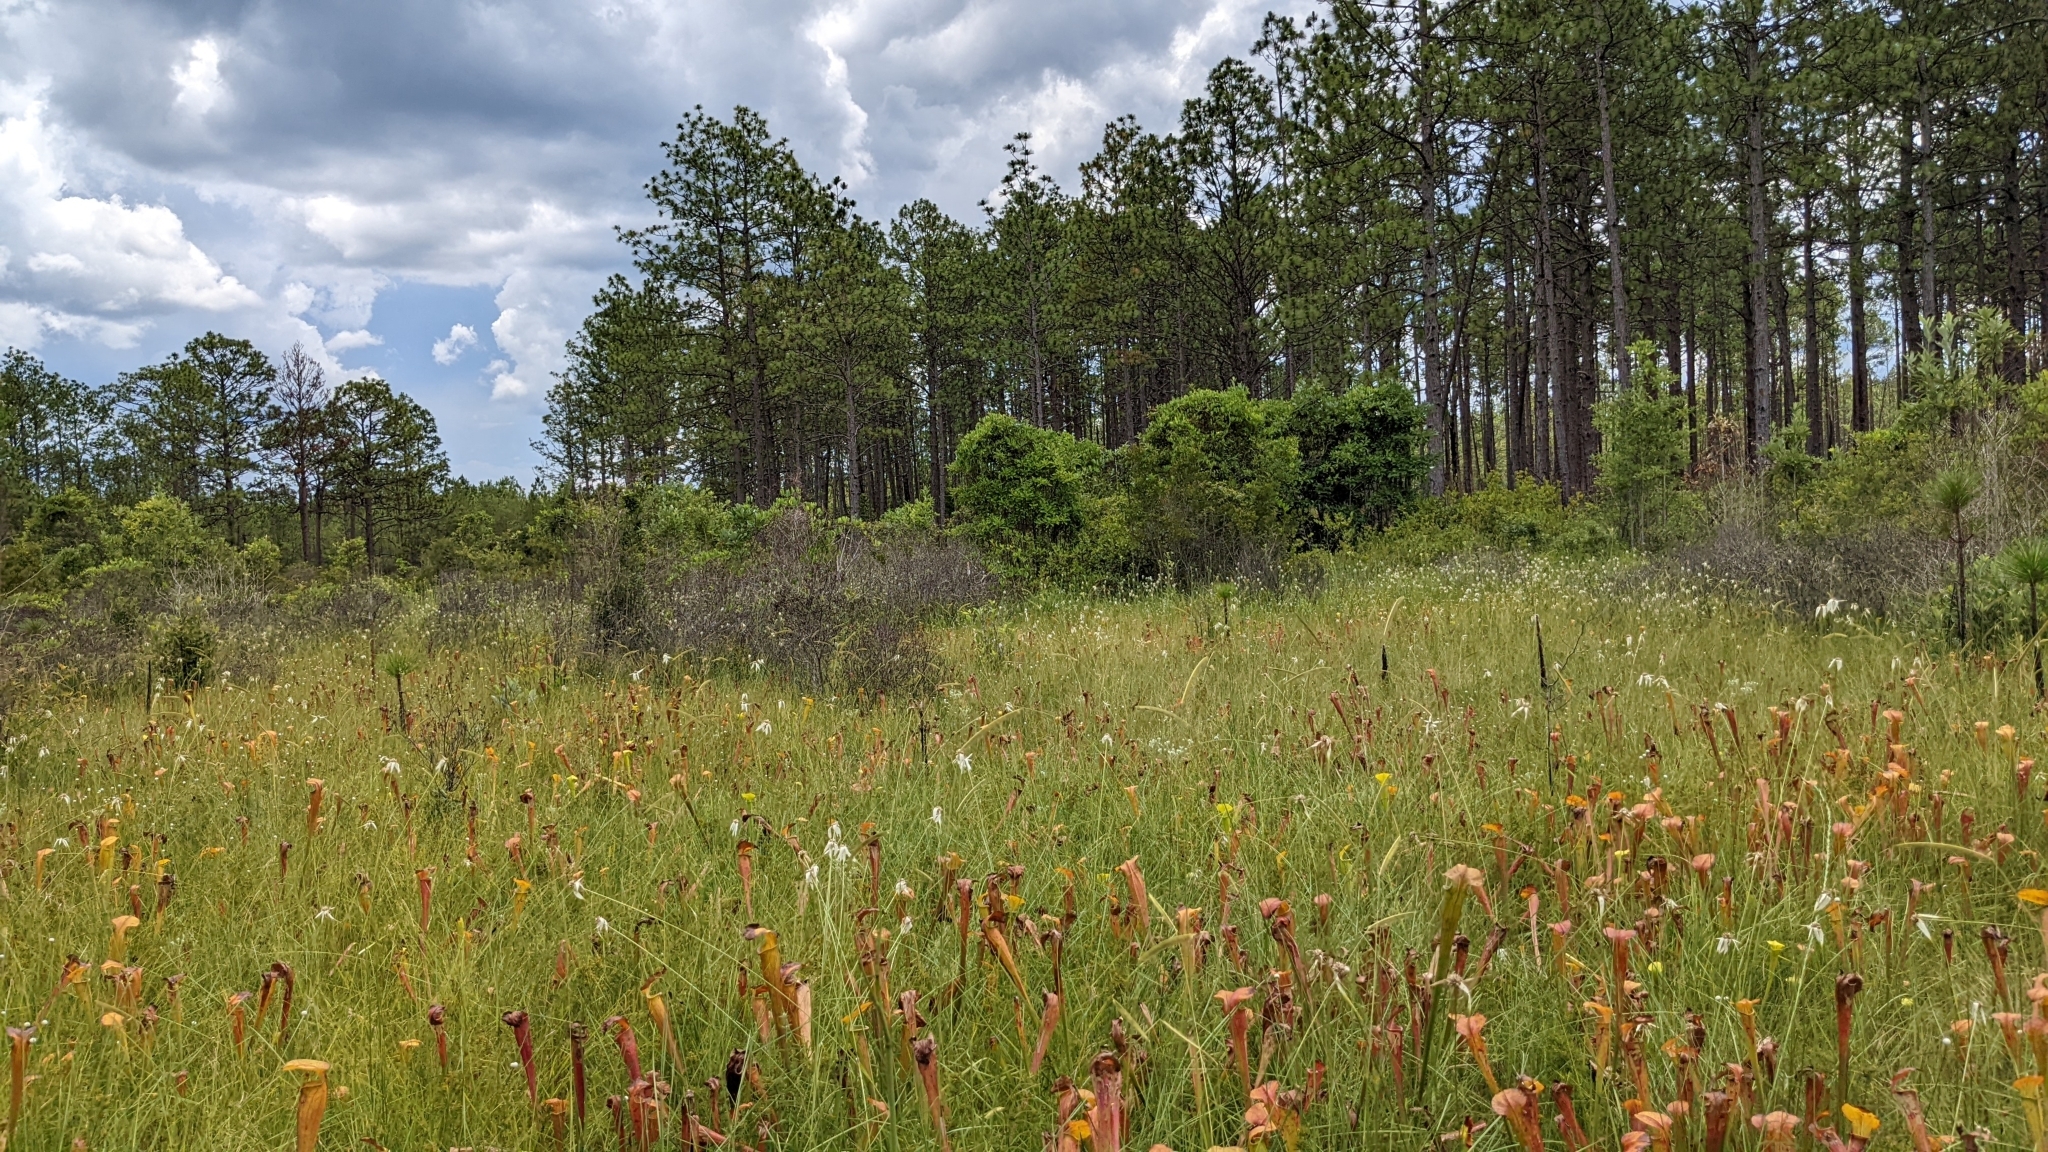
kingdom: Plantae
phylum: Tracheophyta
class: Magnoliopsida
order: Ericales
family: Sarraceniaceae
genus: Sarracenia
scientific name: Sarracenia alata
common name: Yellow trumpets
